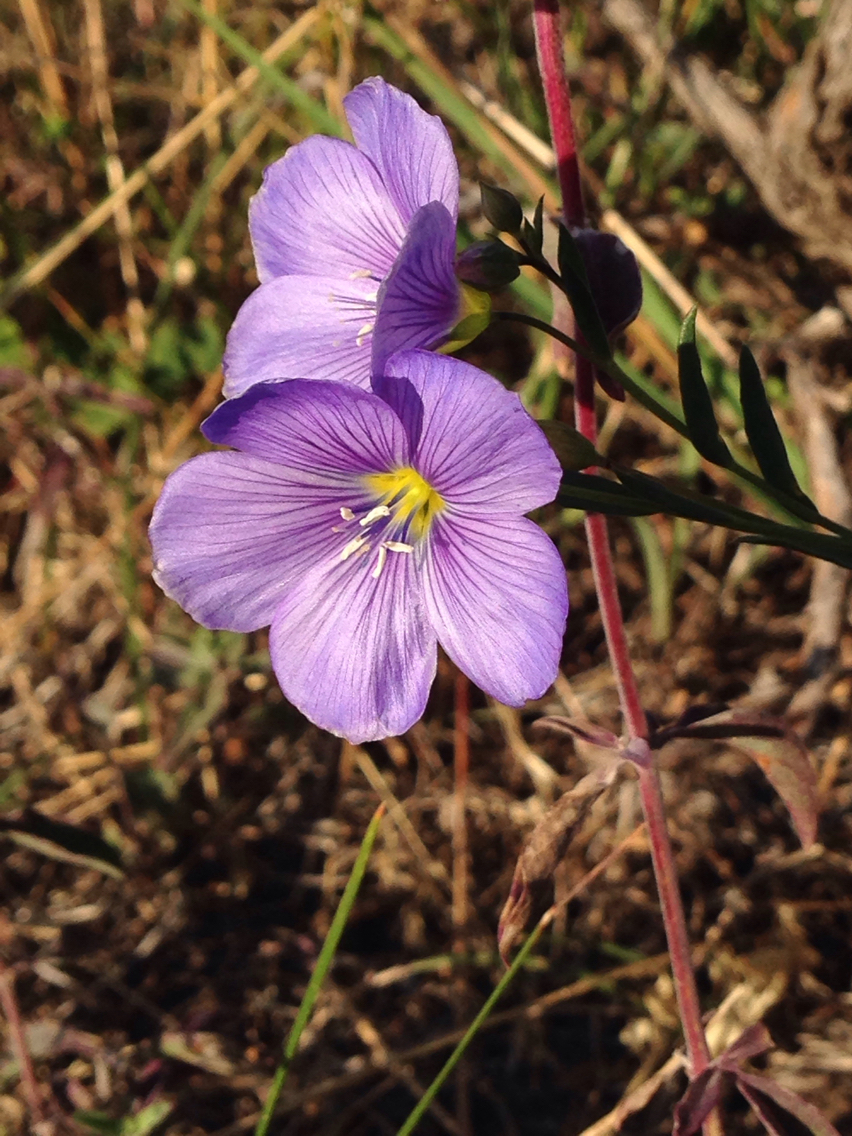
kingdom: Plantae
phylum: Tracheophyta
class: Magnoliopsida
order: Malpighiales
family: Linaceae
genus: Linum
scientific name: Linum lewisii
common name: Prairie flax
